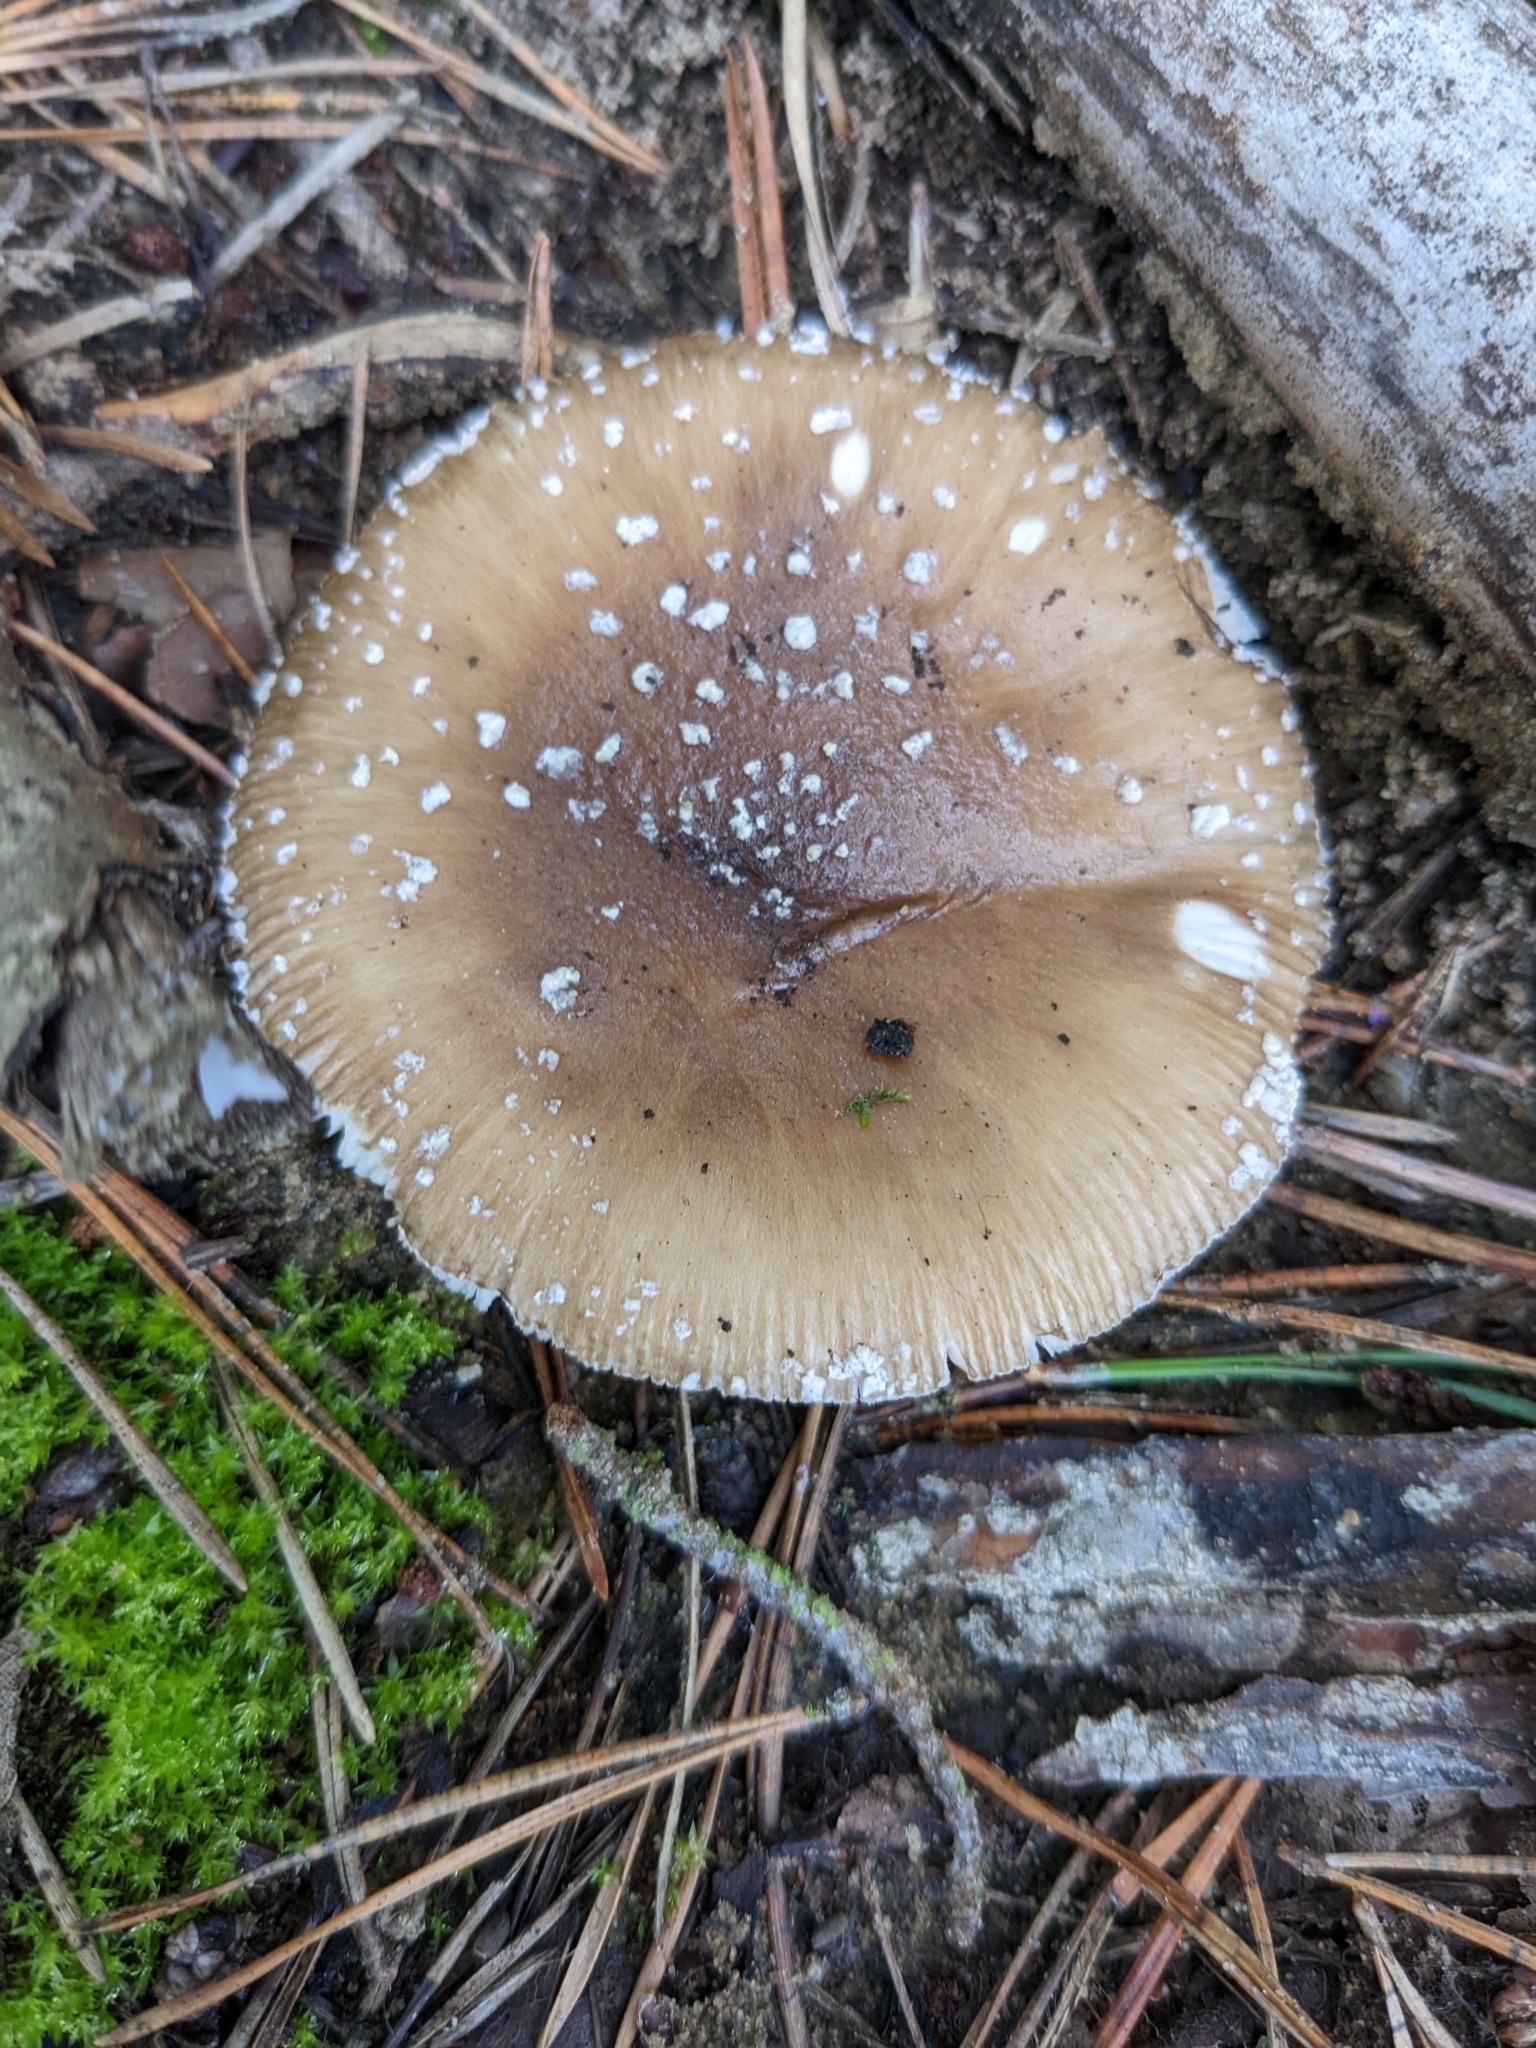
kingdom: Fungi
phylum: Basidiomycota
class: Agaricomycetes
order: Agaricales
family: Amanitaceae
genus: Amanita
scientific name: Amanita pantherina
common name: Panthercap
